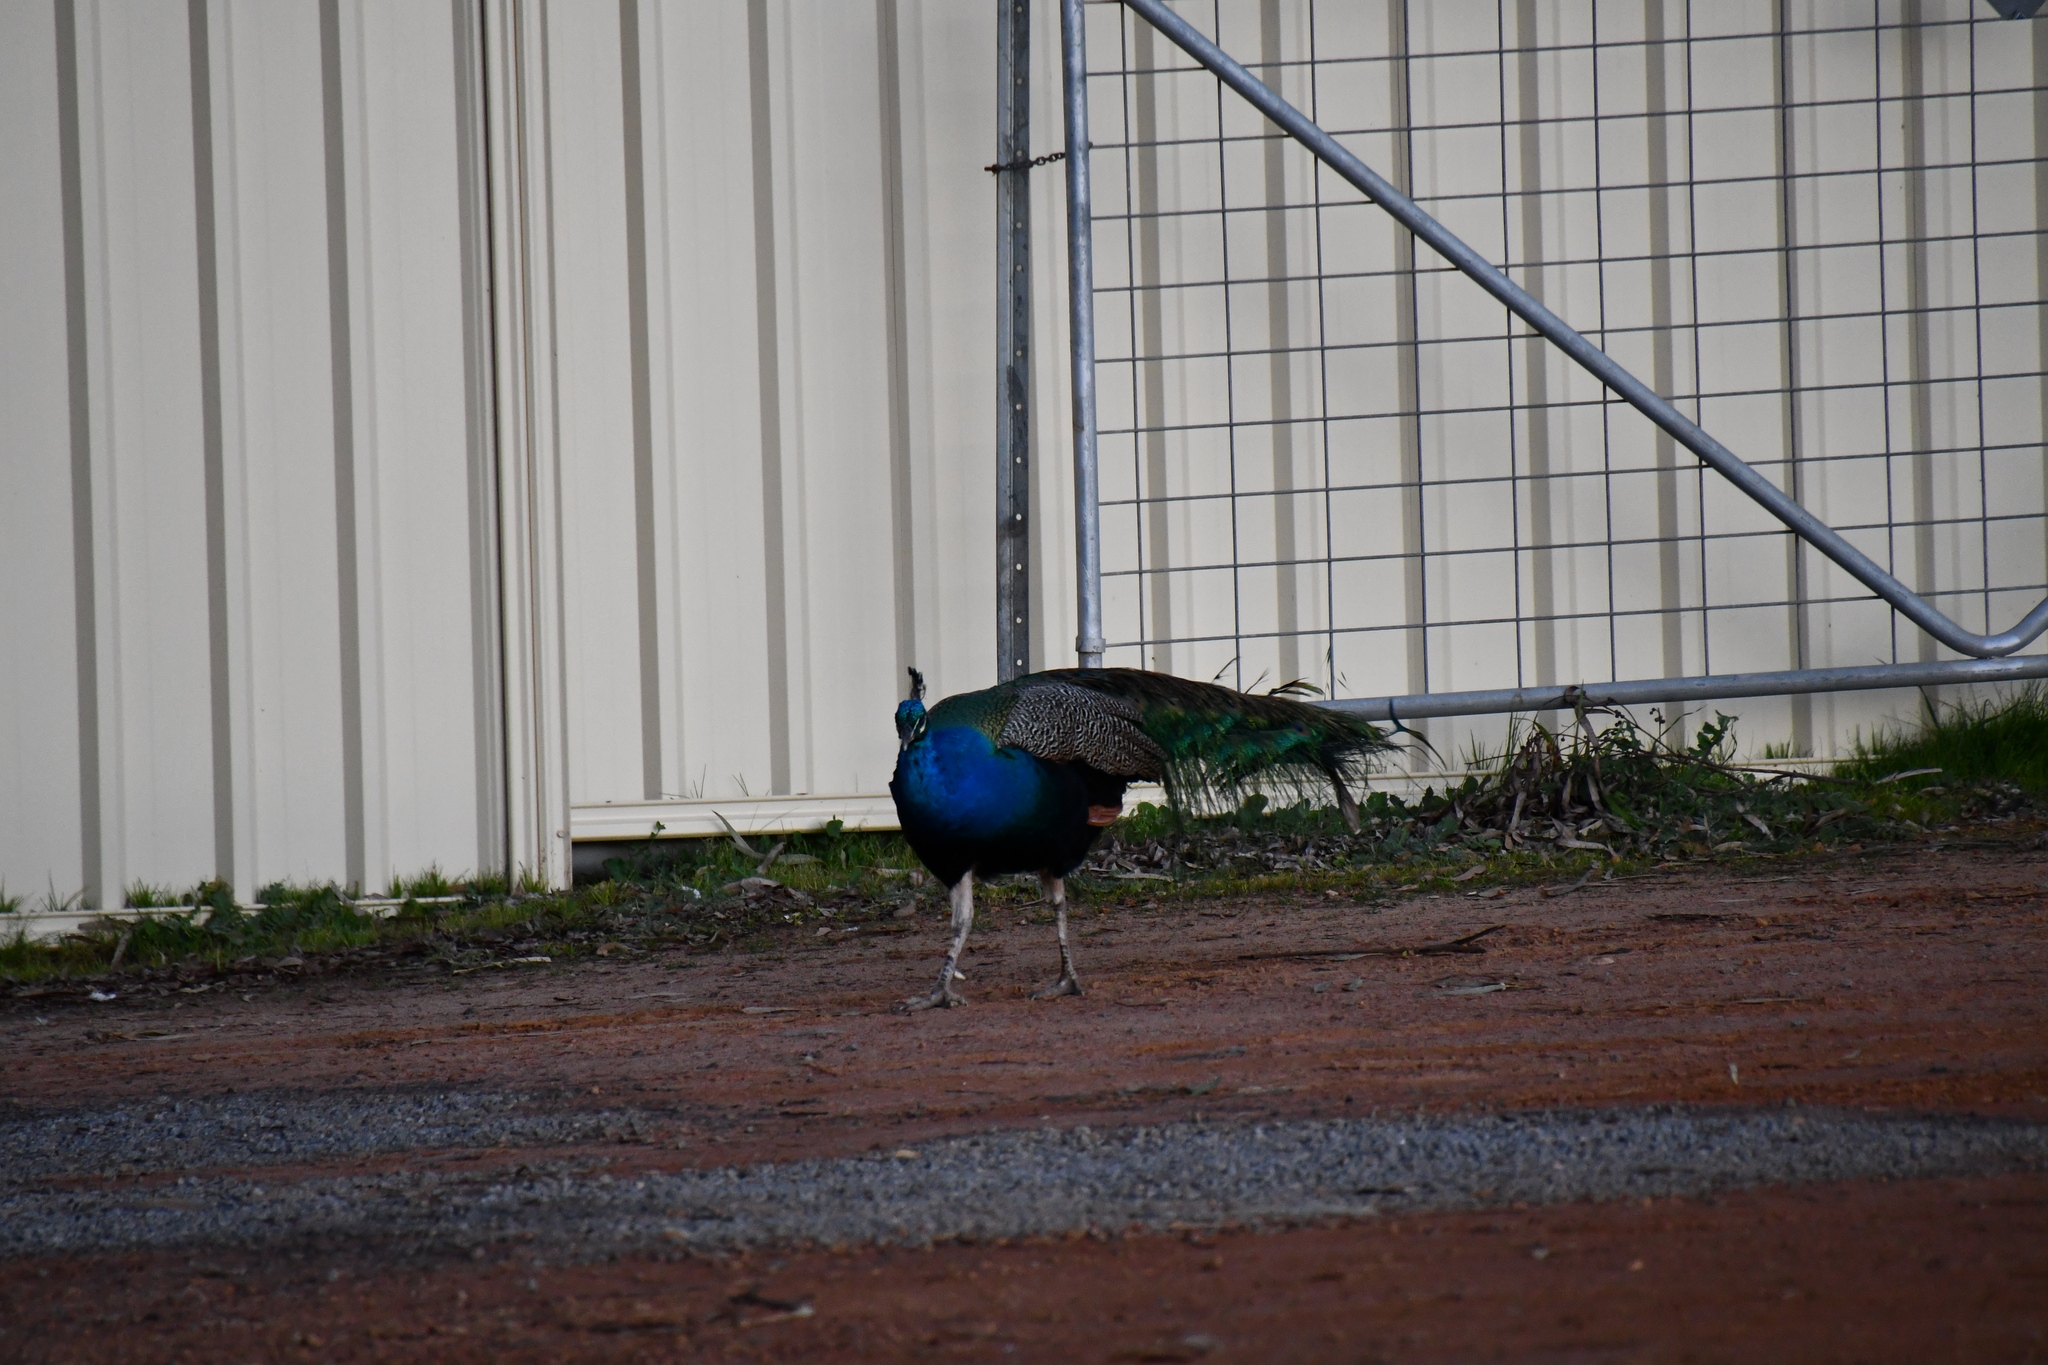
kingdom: Animalia
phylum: Chordata
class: Aves
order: Galliformes
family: Phasianidae
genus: Pavo
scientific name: Pavo cristatus
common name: Indian peafowl
